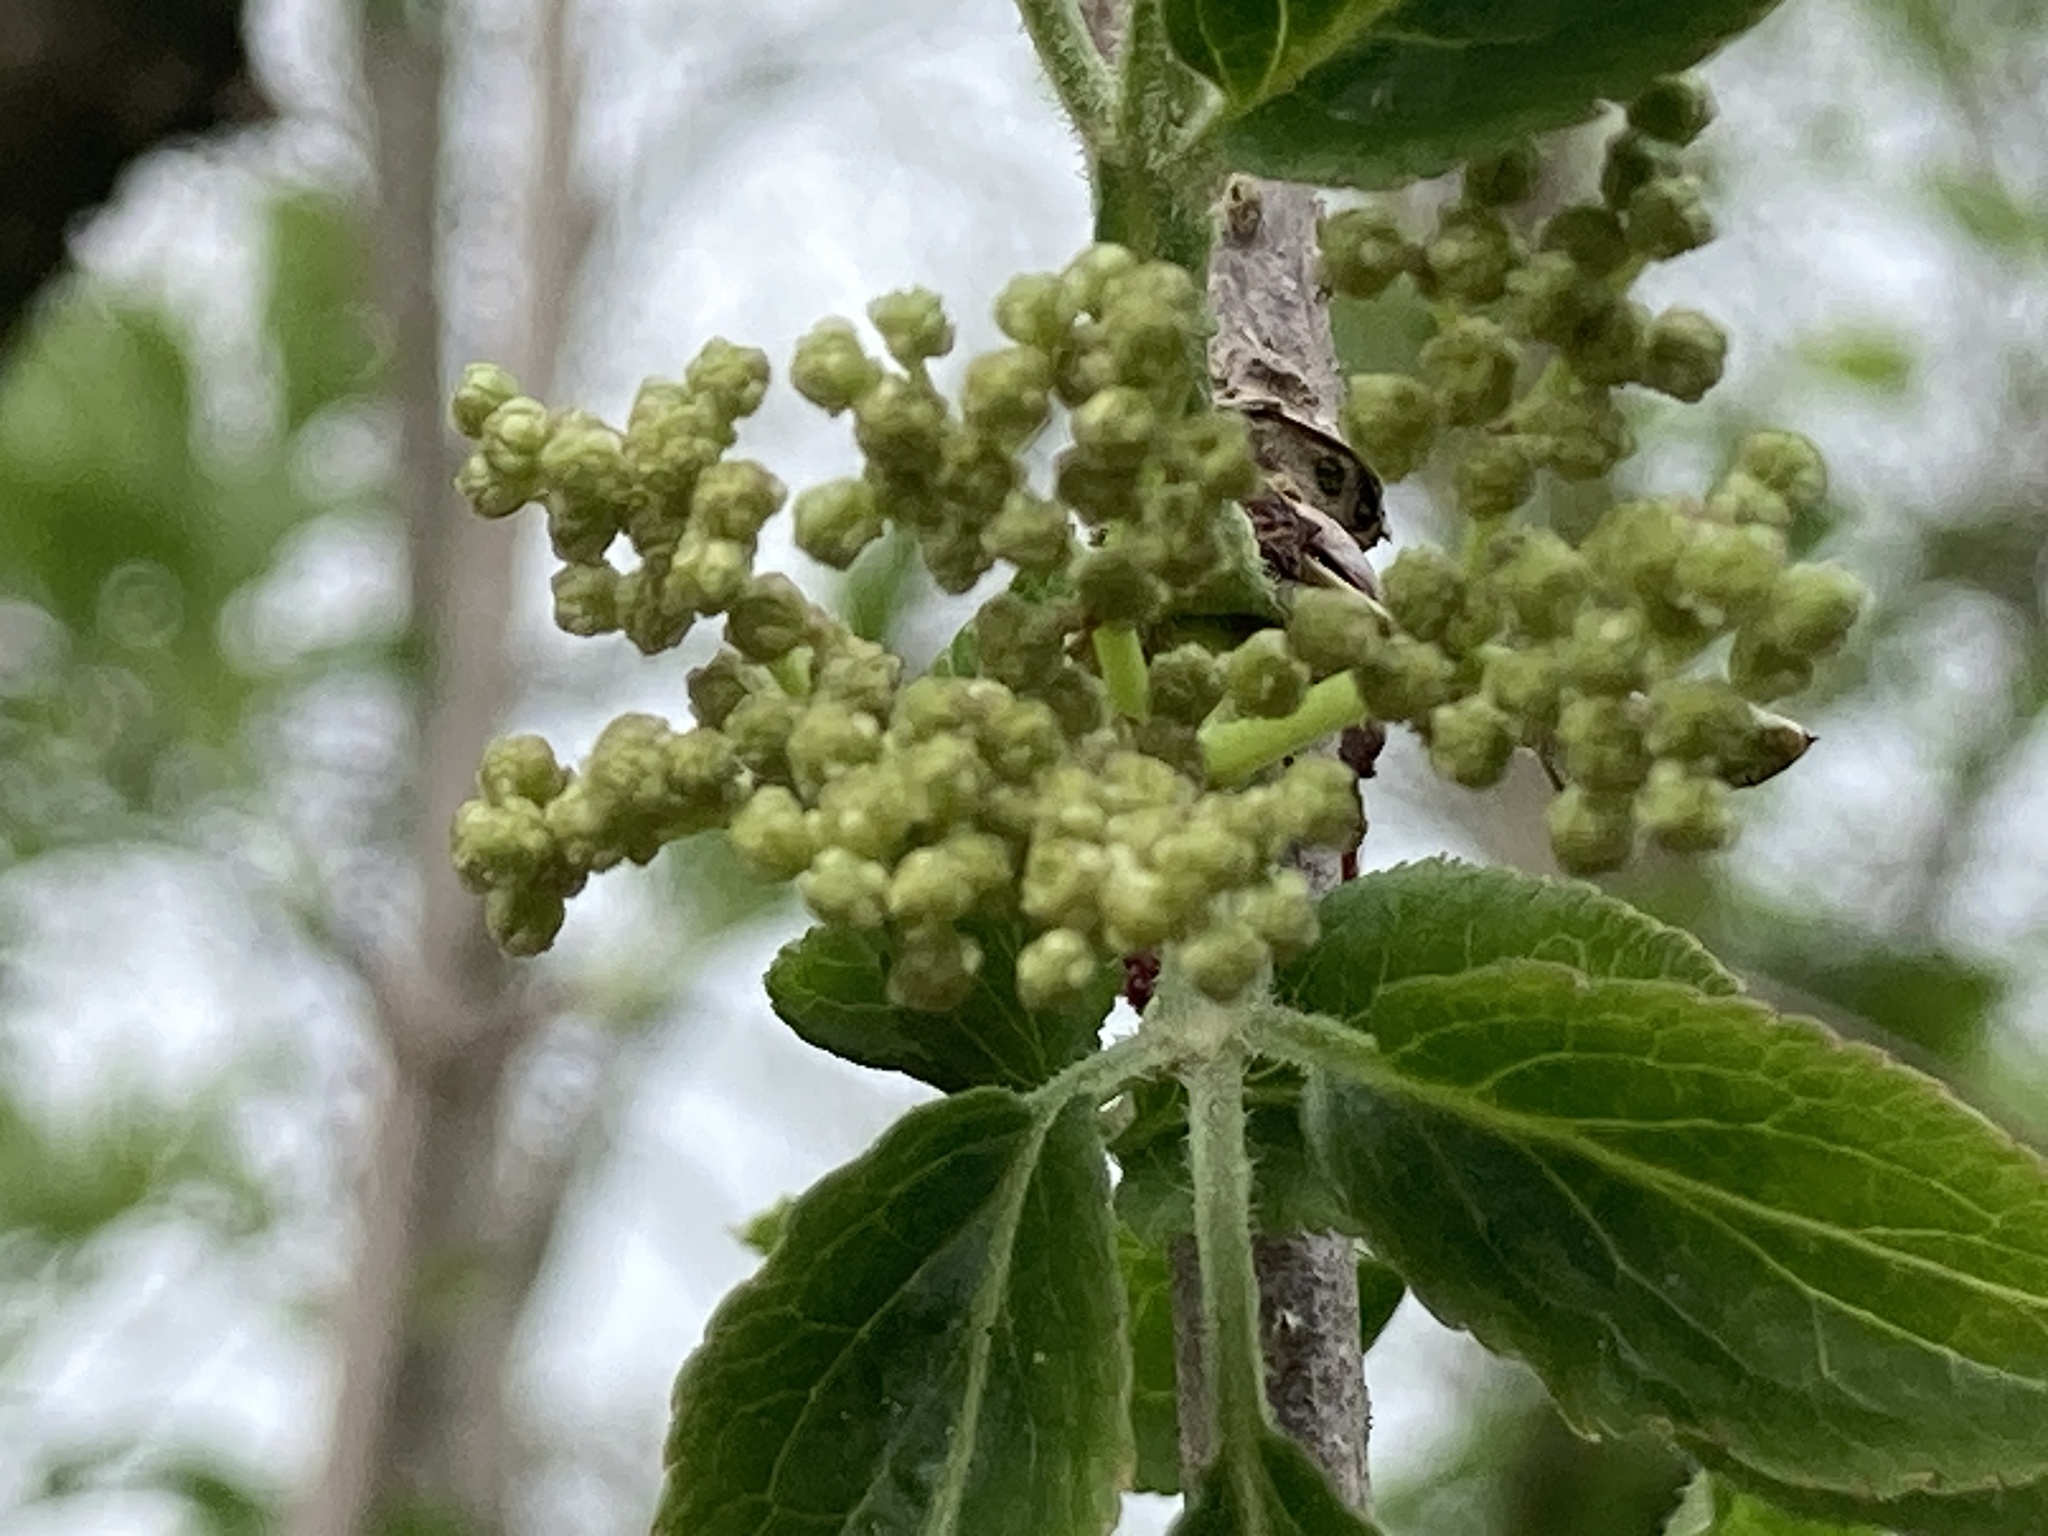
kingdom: Plantae
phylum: Tracheophyta
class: Magnoliopsida
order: Dipsacales
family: Viburnaceae
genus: Sambucus
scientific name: Sambucus nigra
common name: Elder
